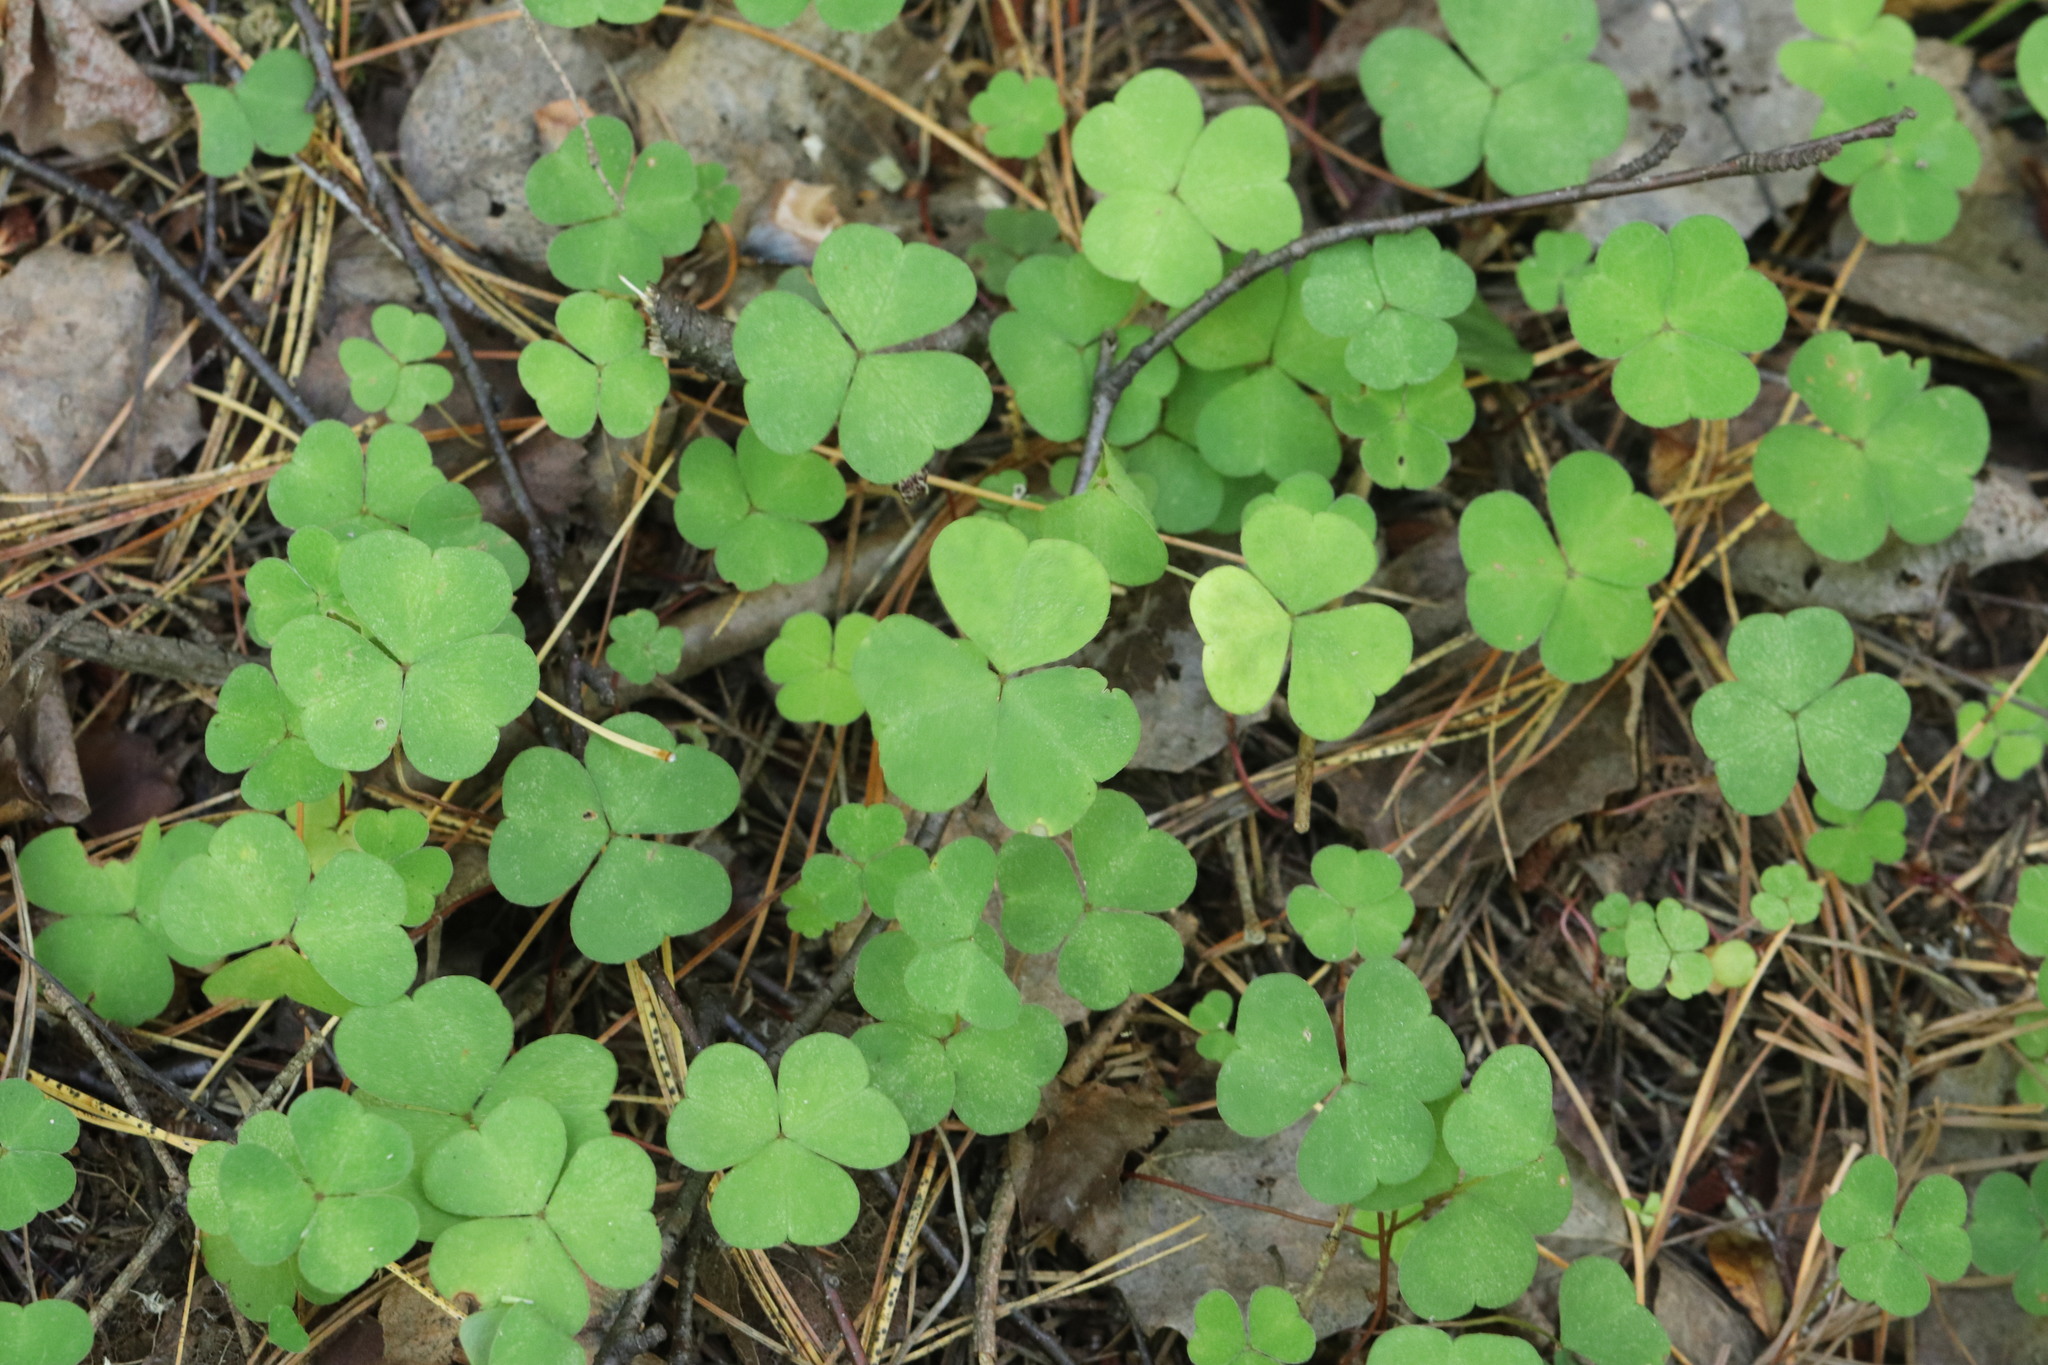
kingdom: Plantae
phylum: Tracheophyta
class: Magnoliopsida
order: Oxalidales
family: Oxalidaceae
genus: Oxalis
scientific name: Oxalis acetosella
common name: Wood-sorrel
